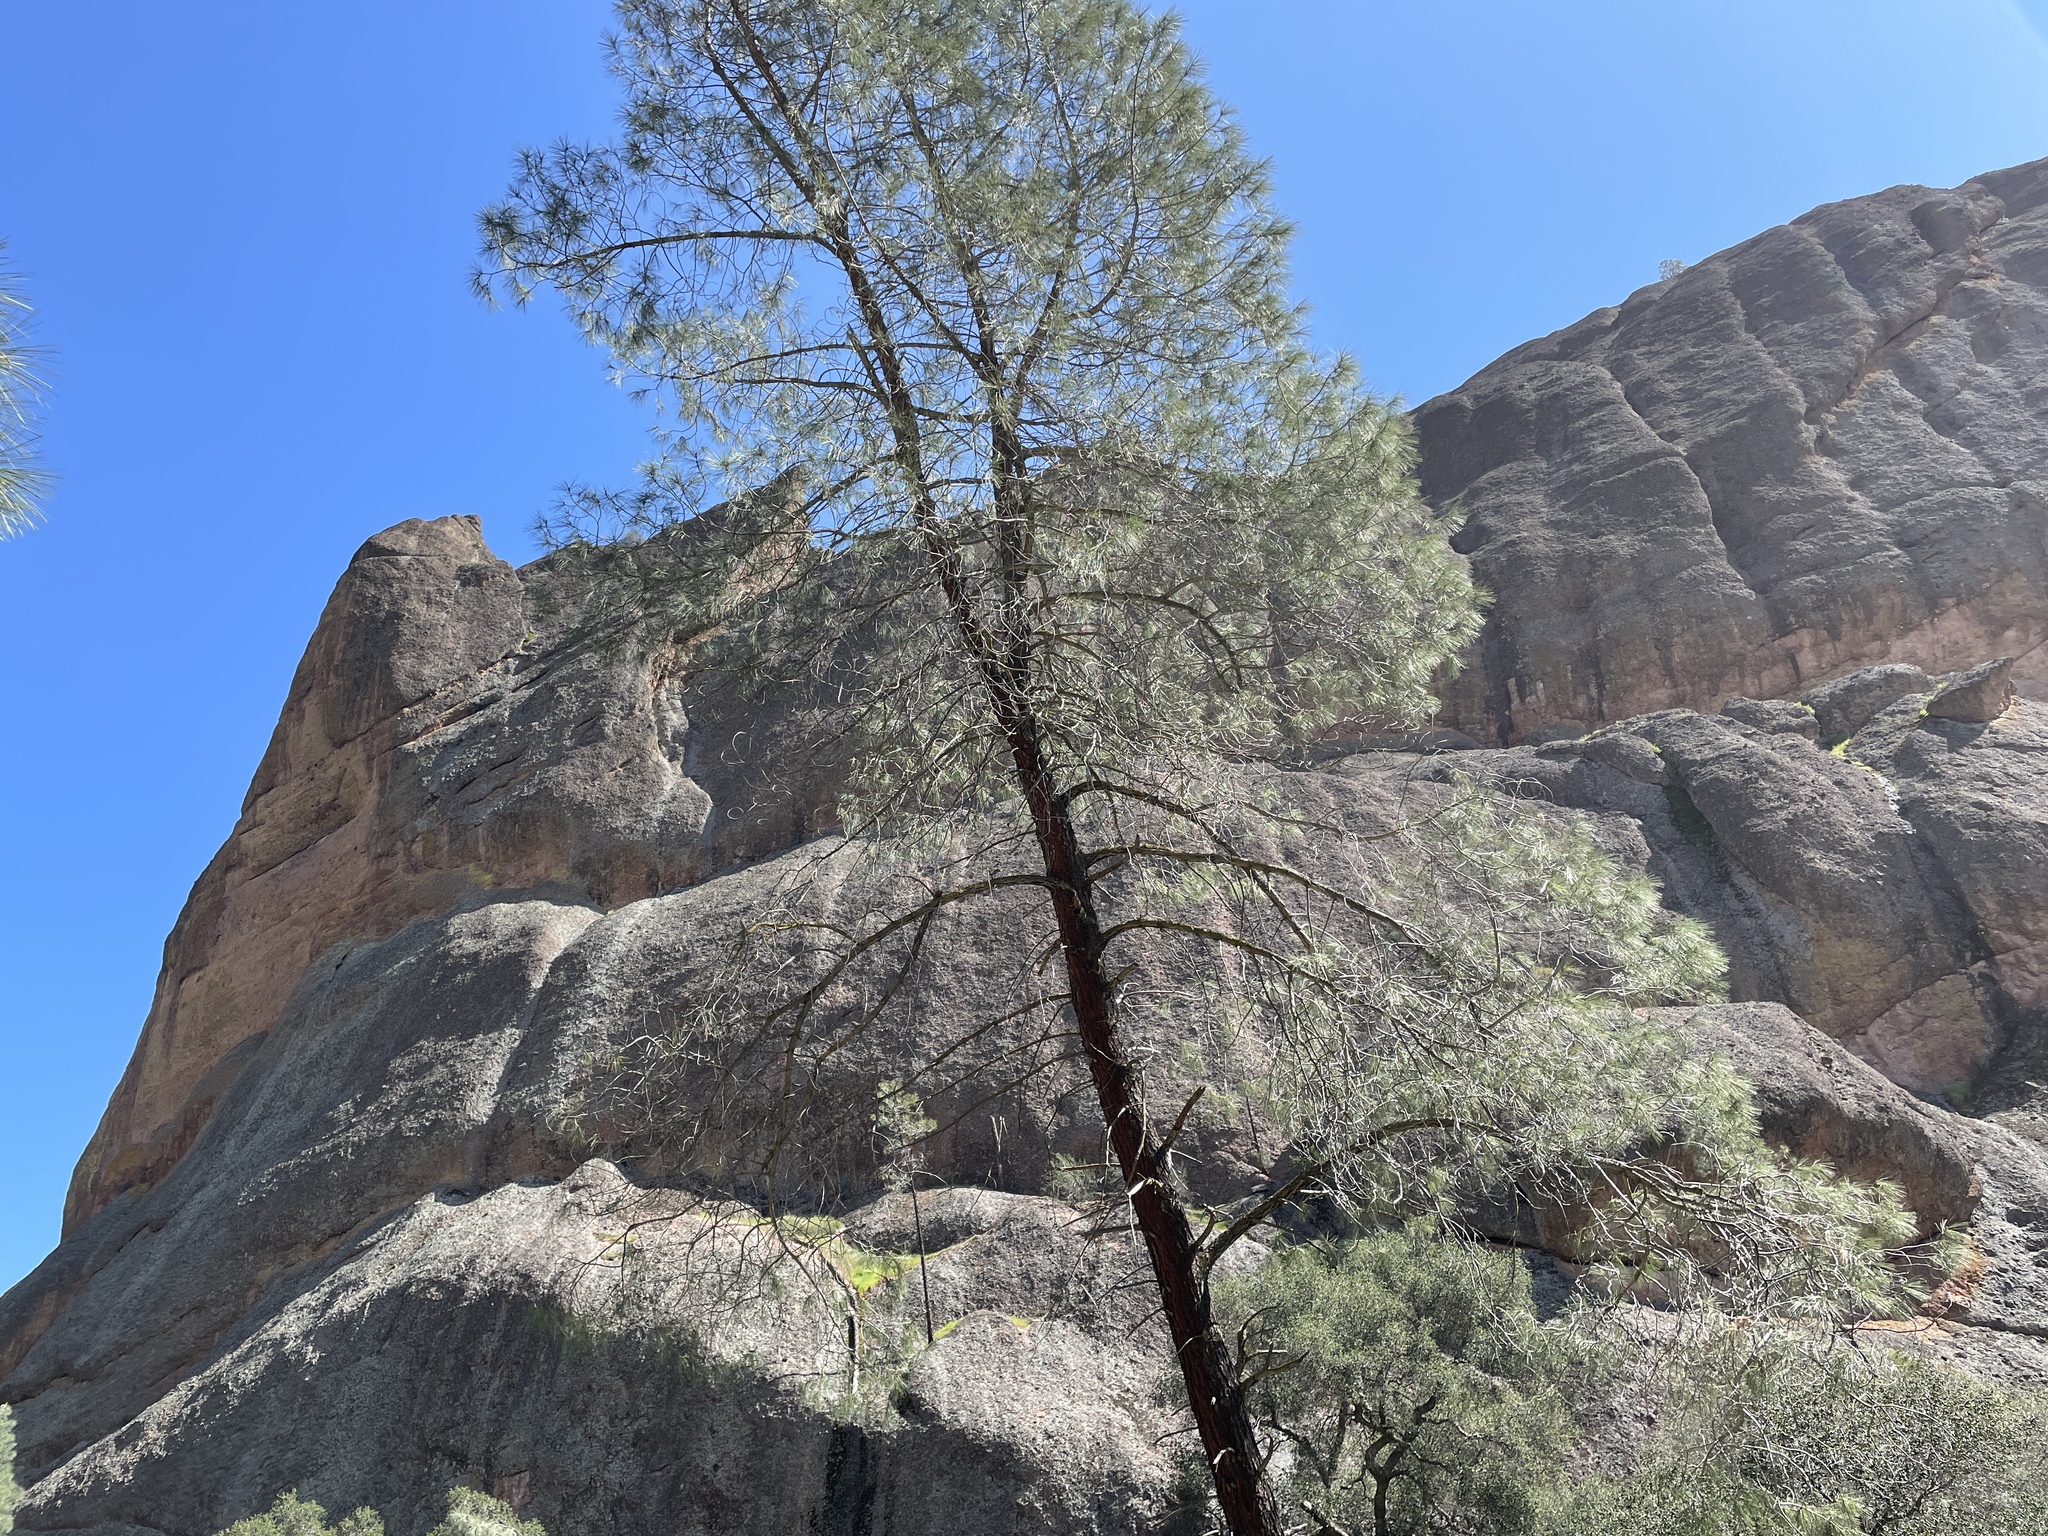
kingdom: Plantae
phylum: Tracheophyta
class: Pinopsida
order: Pinales
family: Pinaceae
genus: Pinus
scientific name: Pinus sabiniana
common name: Bull pine
